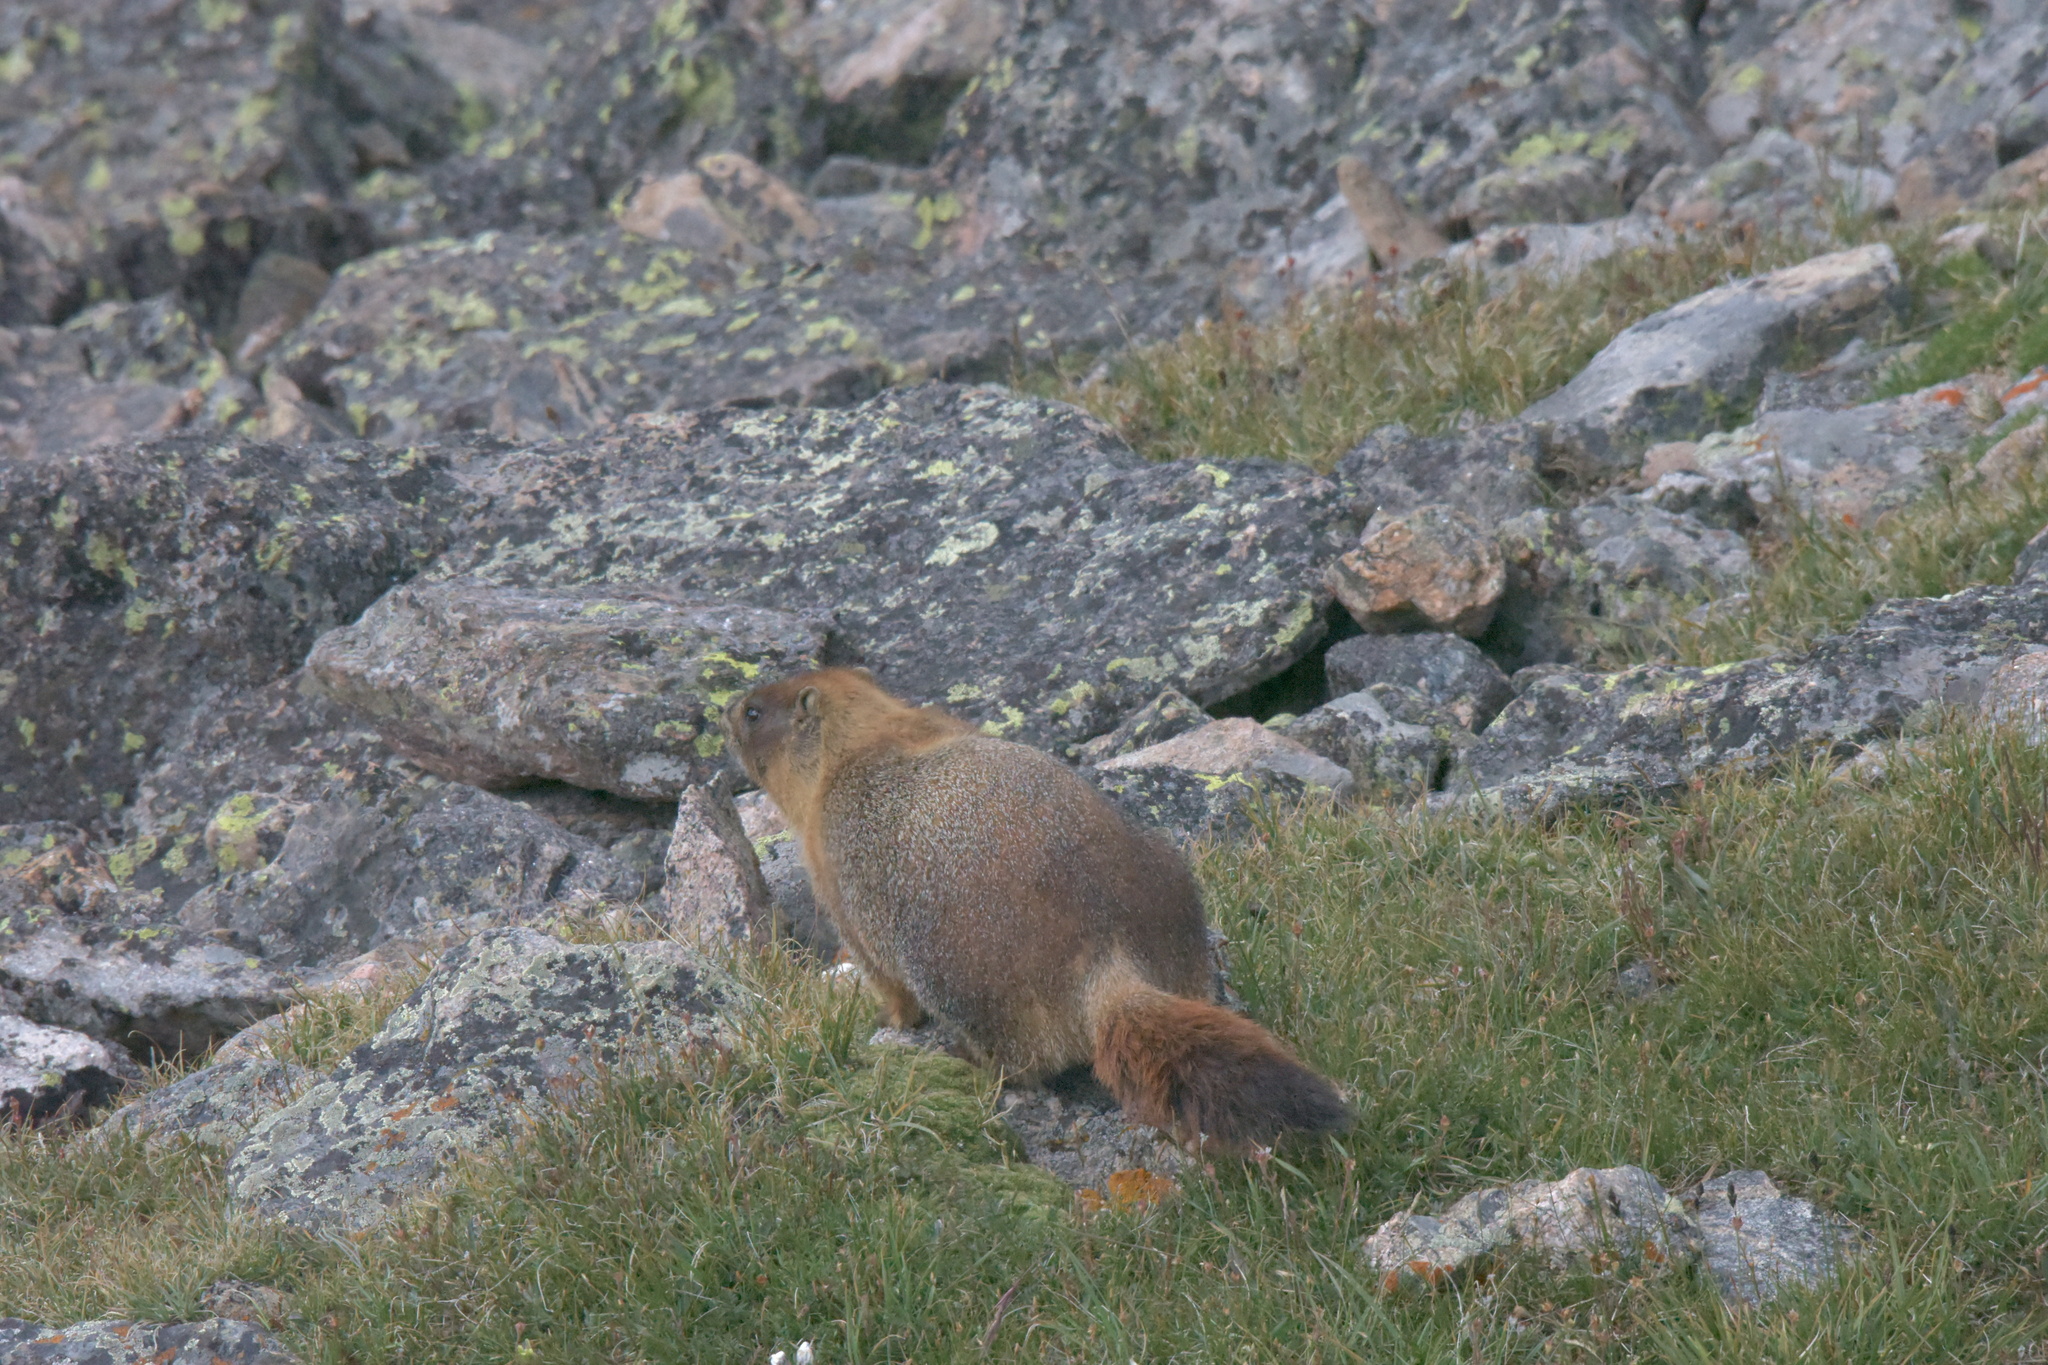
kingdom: Animalia
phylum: Chordata
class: Mammalia
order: Rodentia
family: Sciuridae
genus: Marmota
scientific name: Marmota flaviventris
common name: Yellow-bellied marmot
